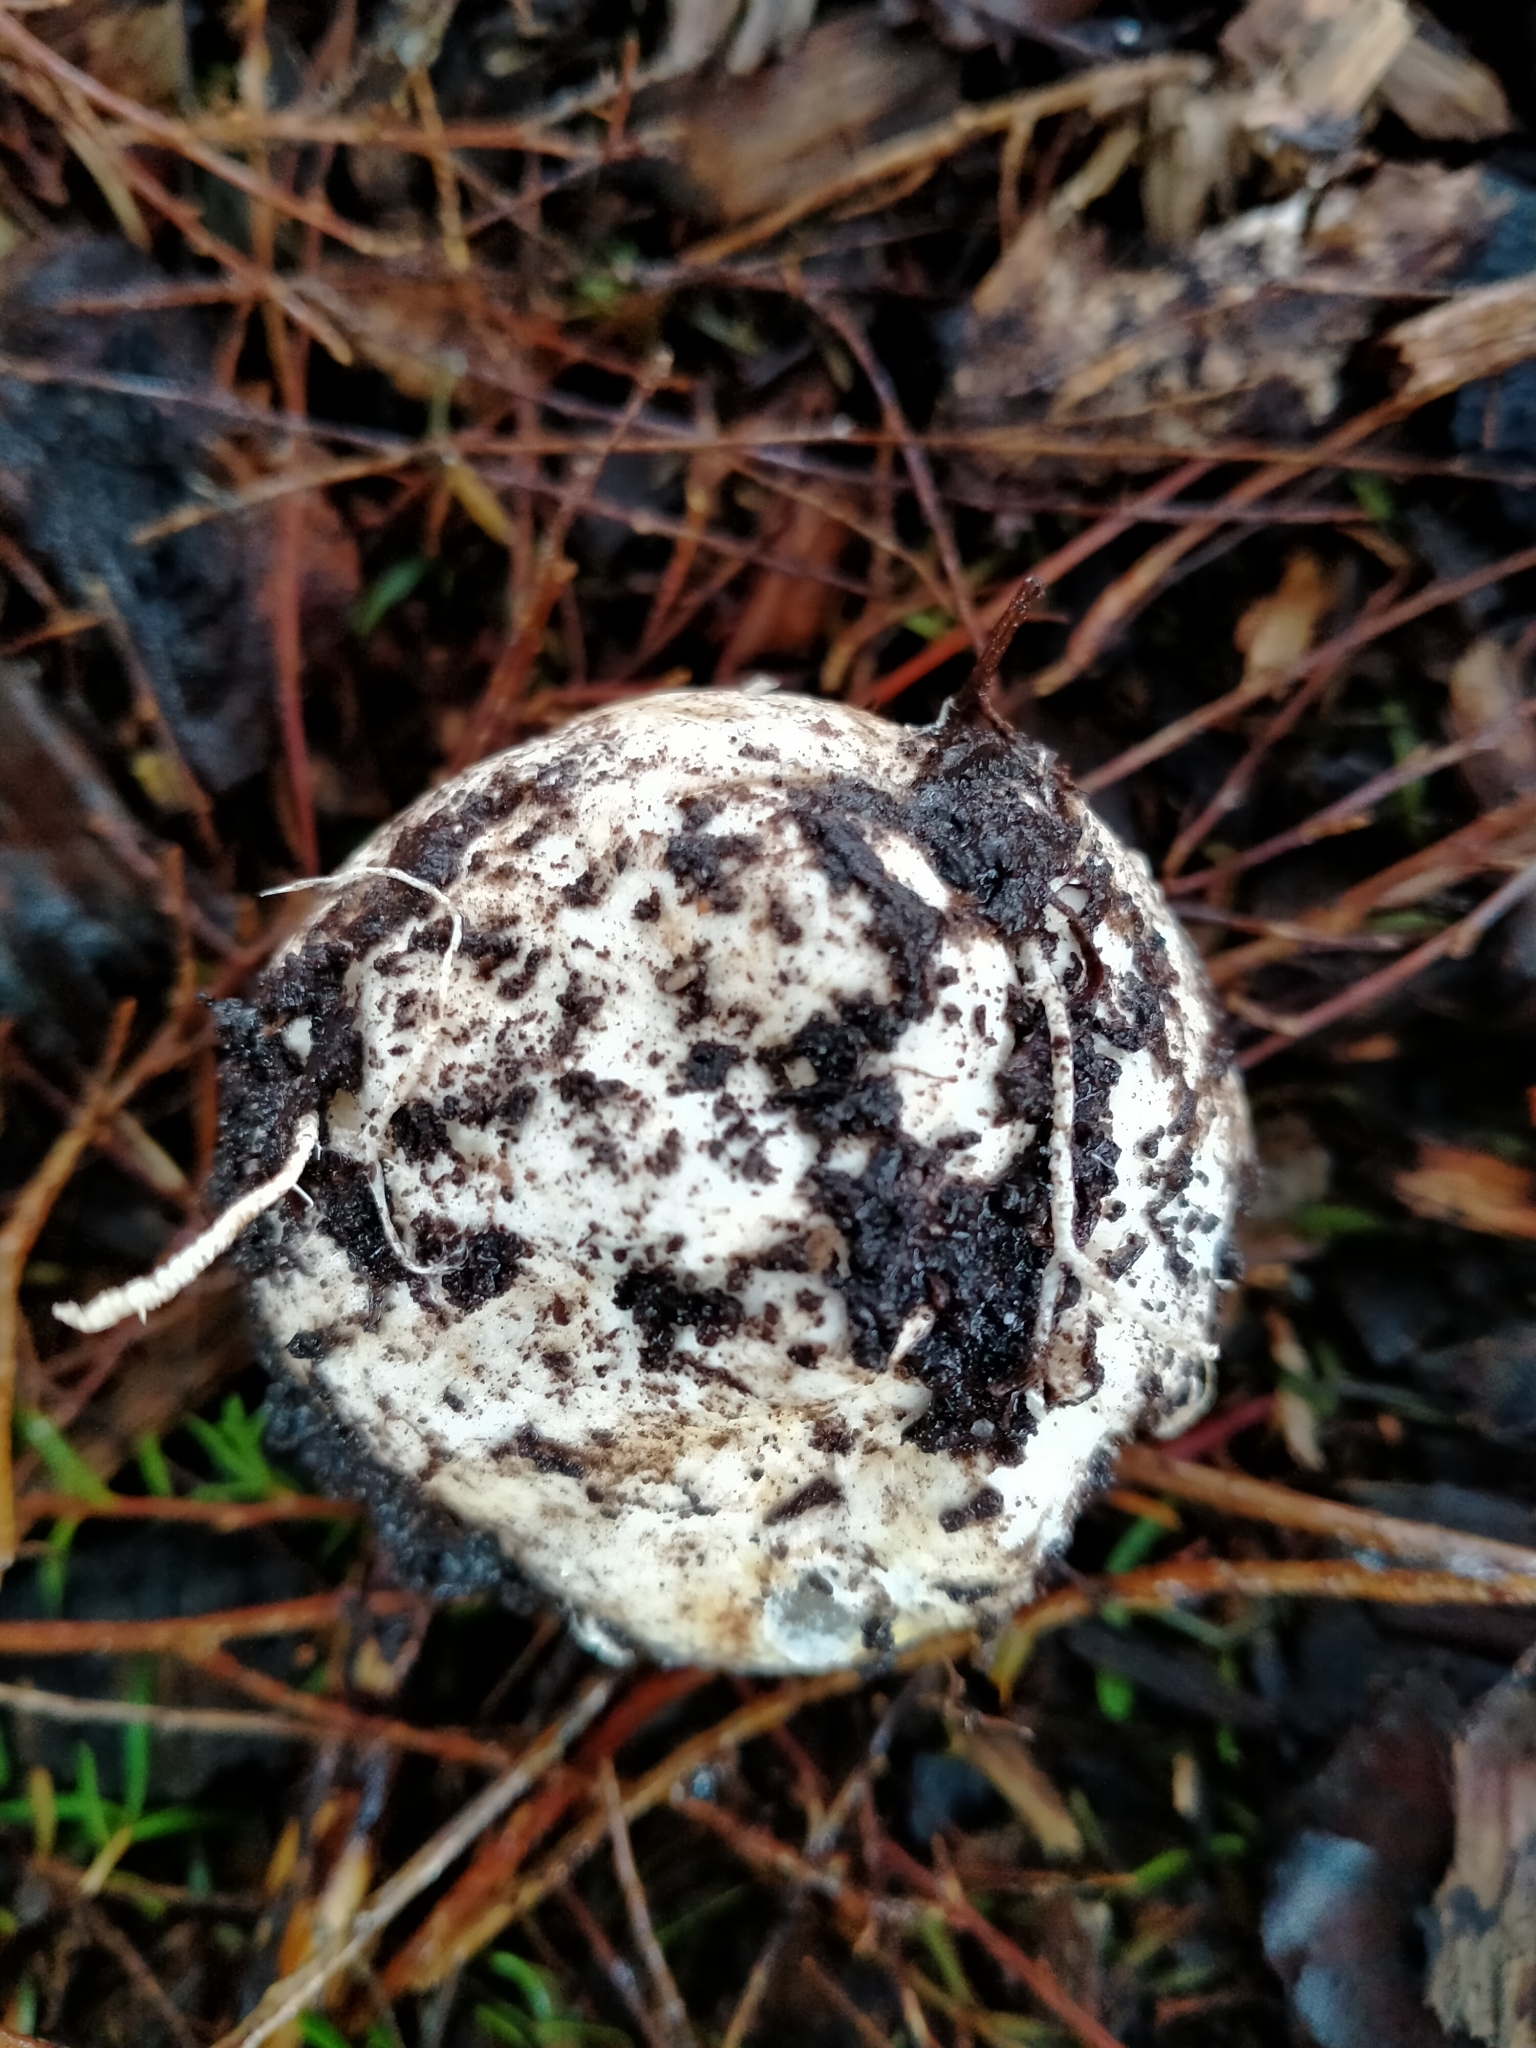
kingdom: Fungi
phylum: Basidiomycota
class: Agaricomycetes
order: Phallales
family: Phallaceae
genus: Ileodictyon
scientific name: Ileodictyon cibarium
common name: Basket fungus
